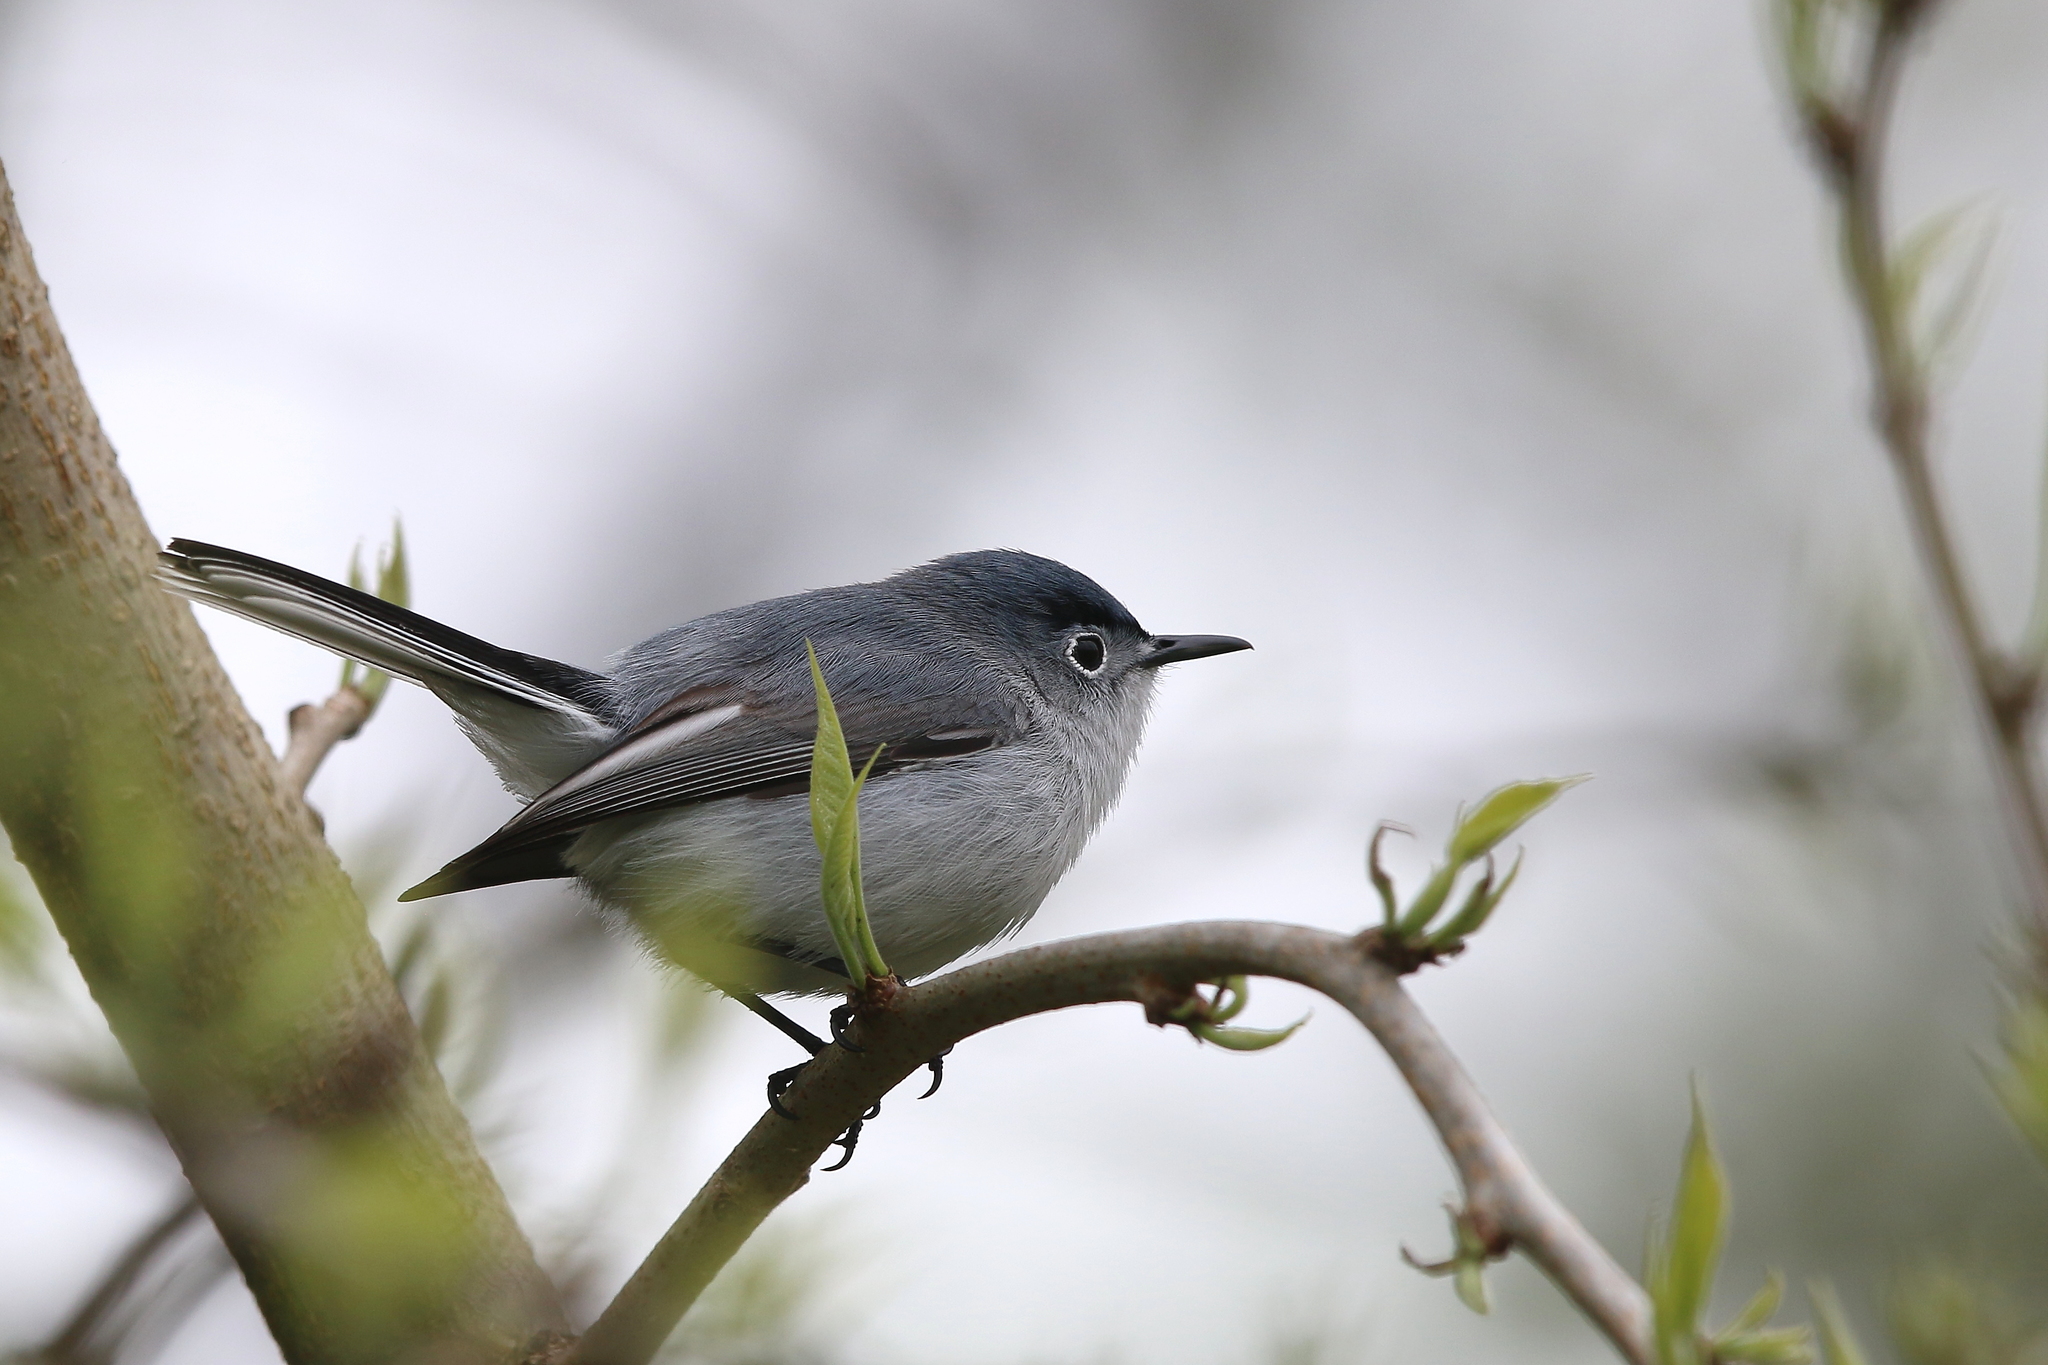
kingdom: Animalia
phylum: Chordata
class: Aves
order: Passeriformes
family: Polioptilidae
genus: Polioptila
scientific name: Polioptila caerulea
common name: Blue-gray gnatcatcher
